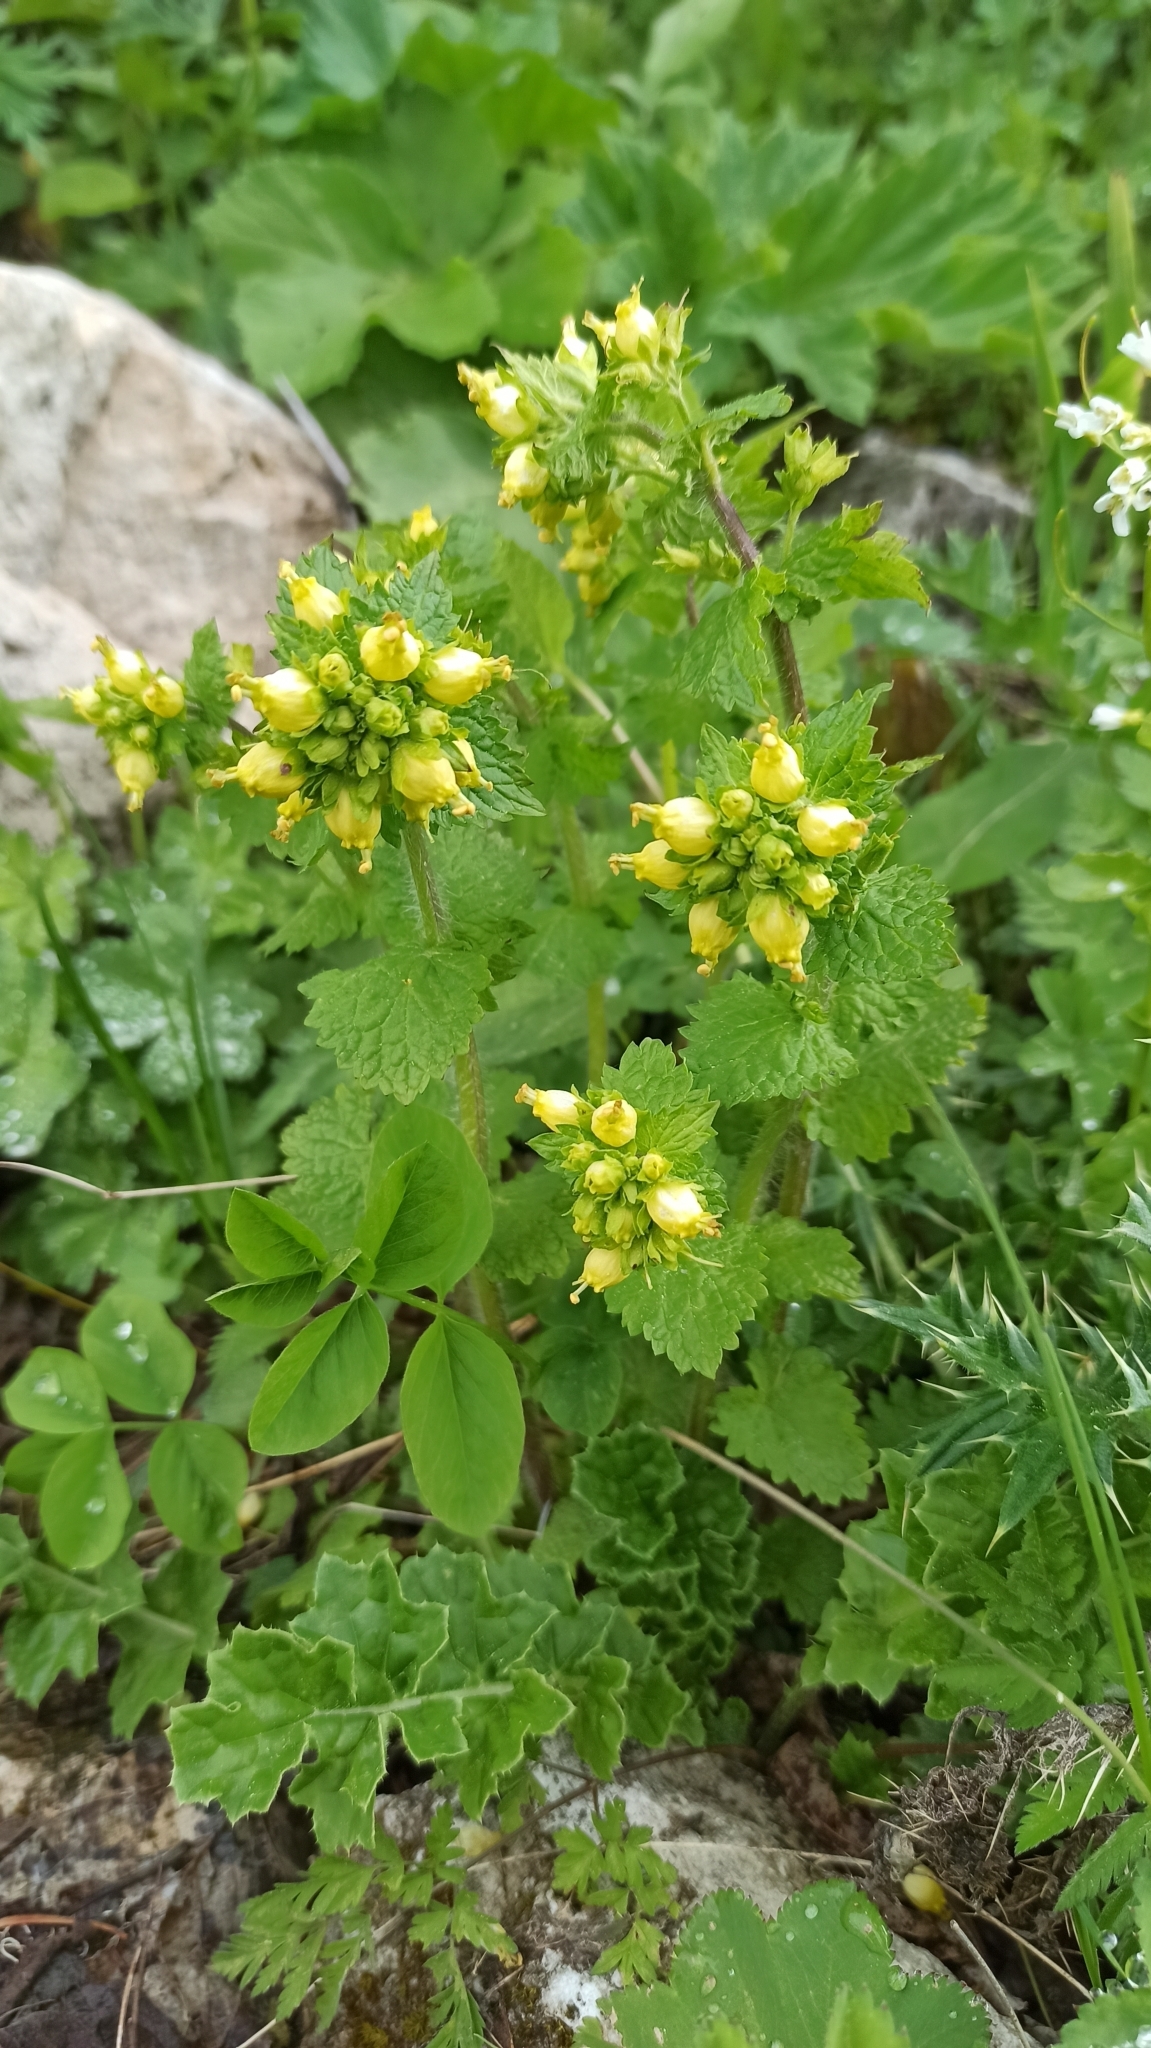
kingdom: Plantae
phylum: Tracheophyta
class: Magnoliopsida
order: Lamiales
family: Scrophulariaceae
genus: Scrophularia
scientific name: Scrophularia chrysantha
